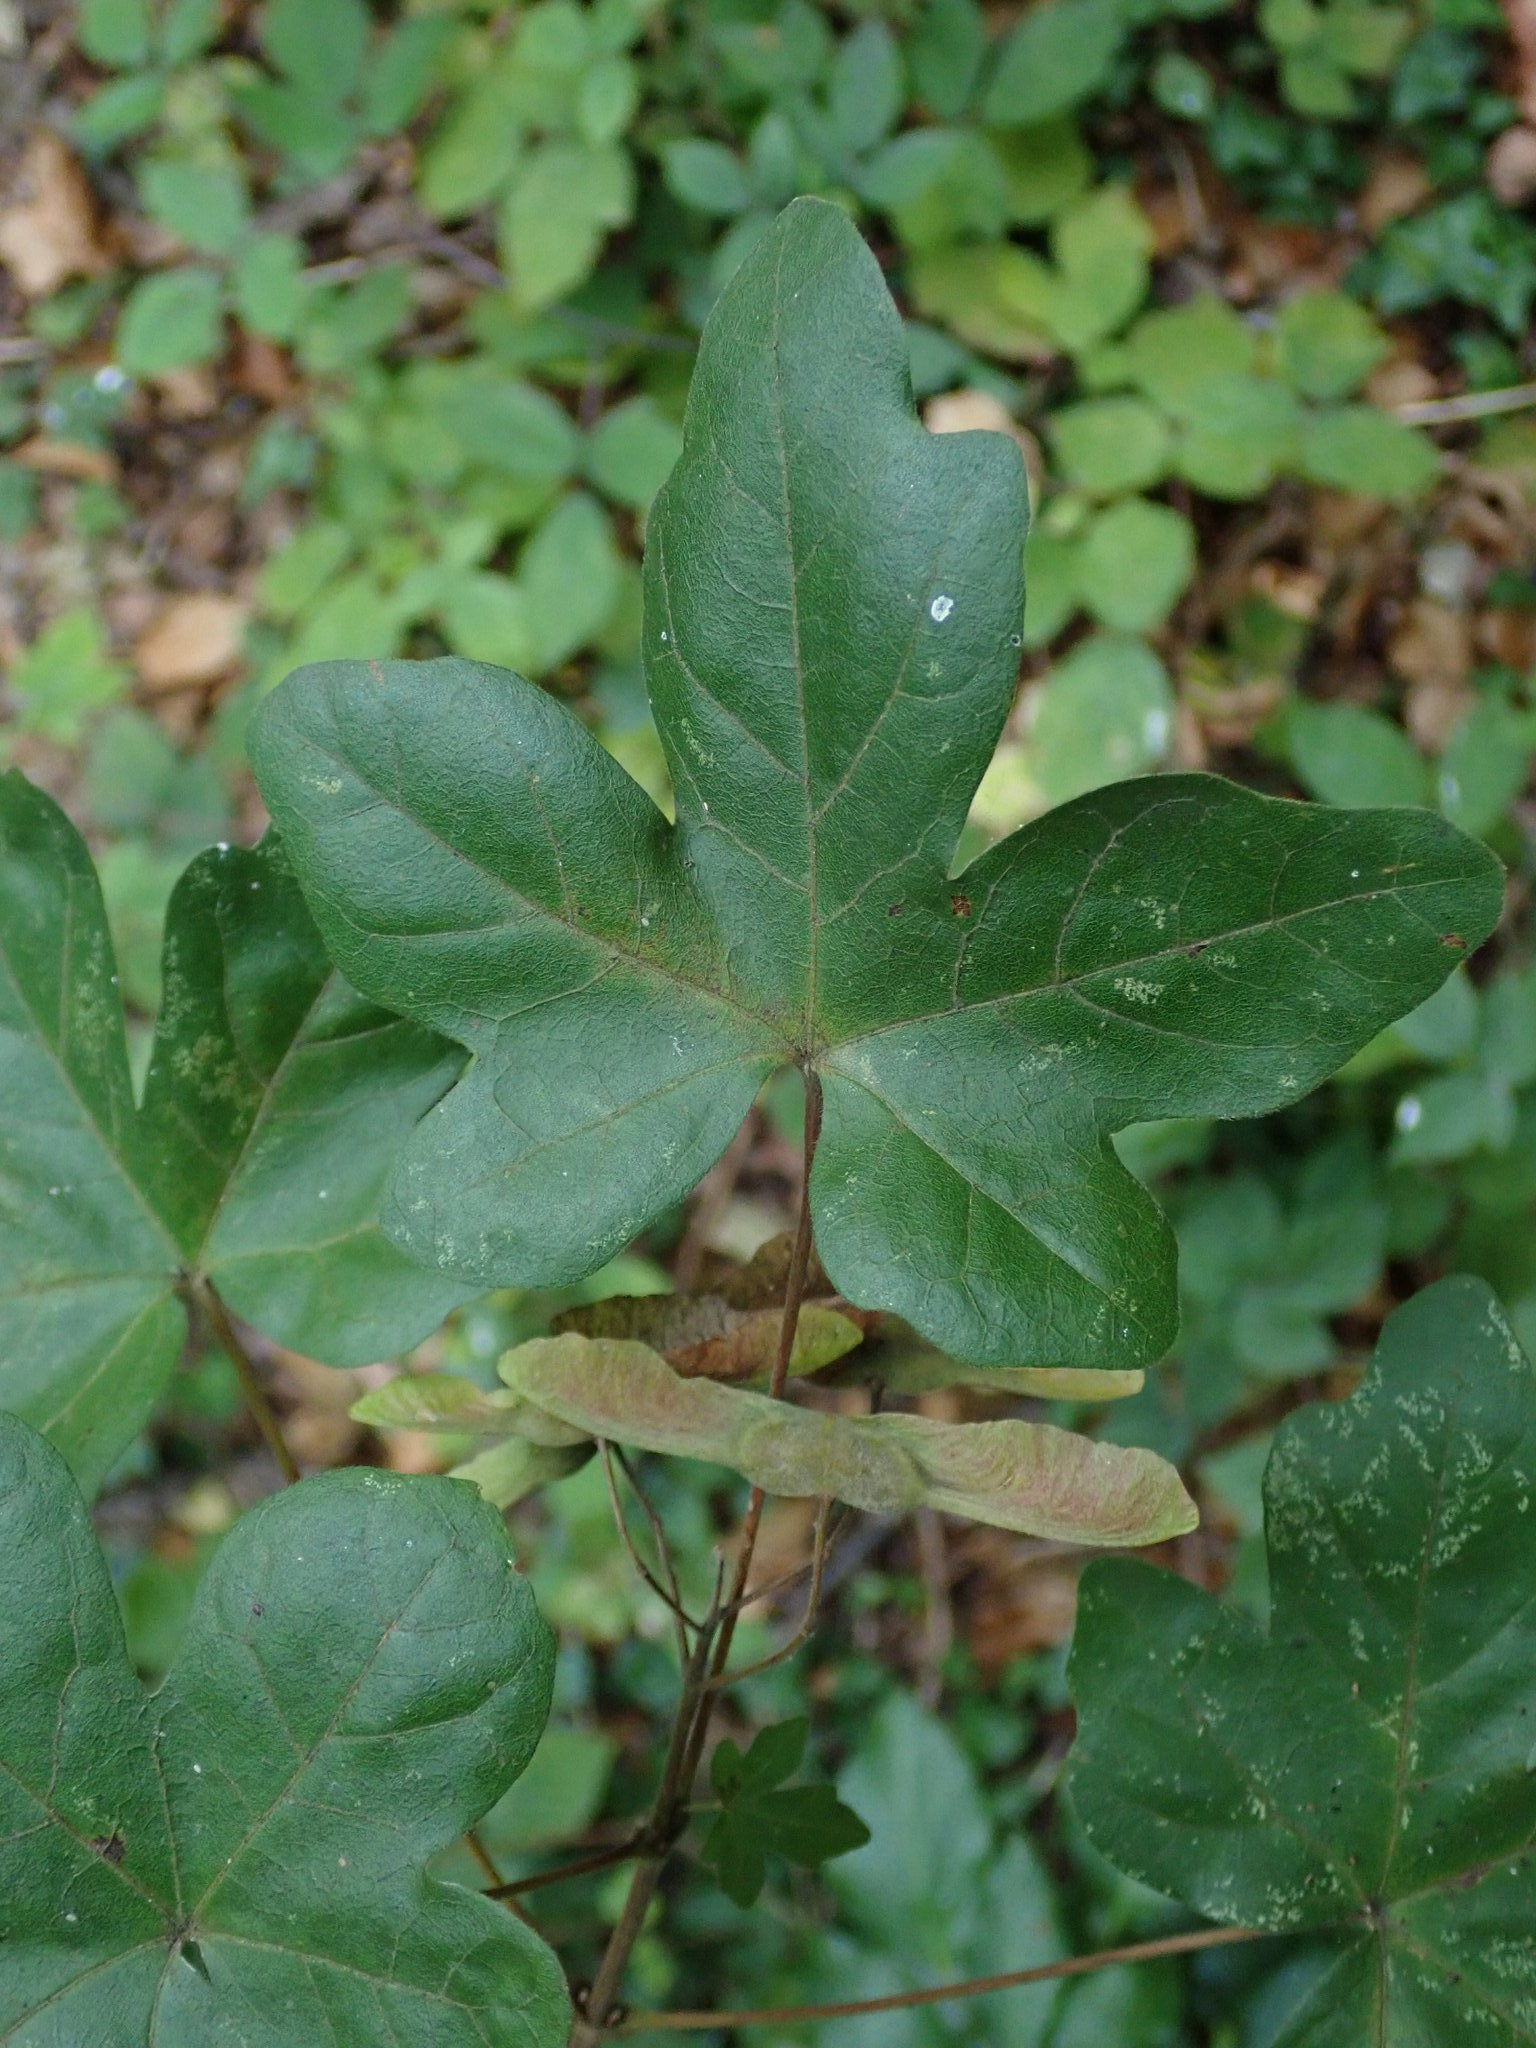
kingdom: Plantae
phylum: Tracheophyta
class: Magnoliopsida
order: Sapindales
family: Sapindaceae
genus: Acer
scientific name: Acer campestre
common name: Field maple
